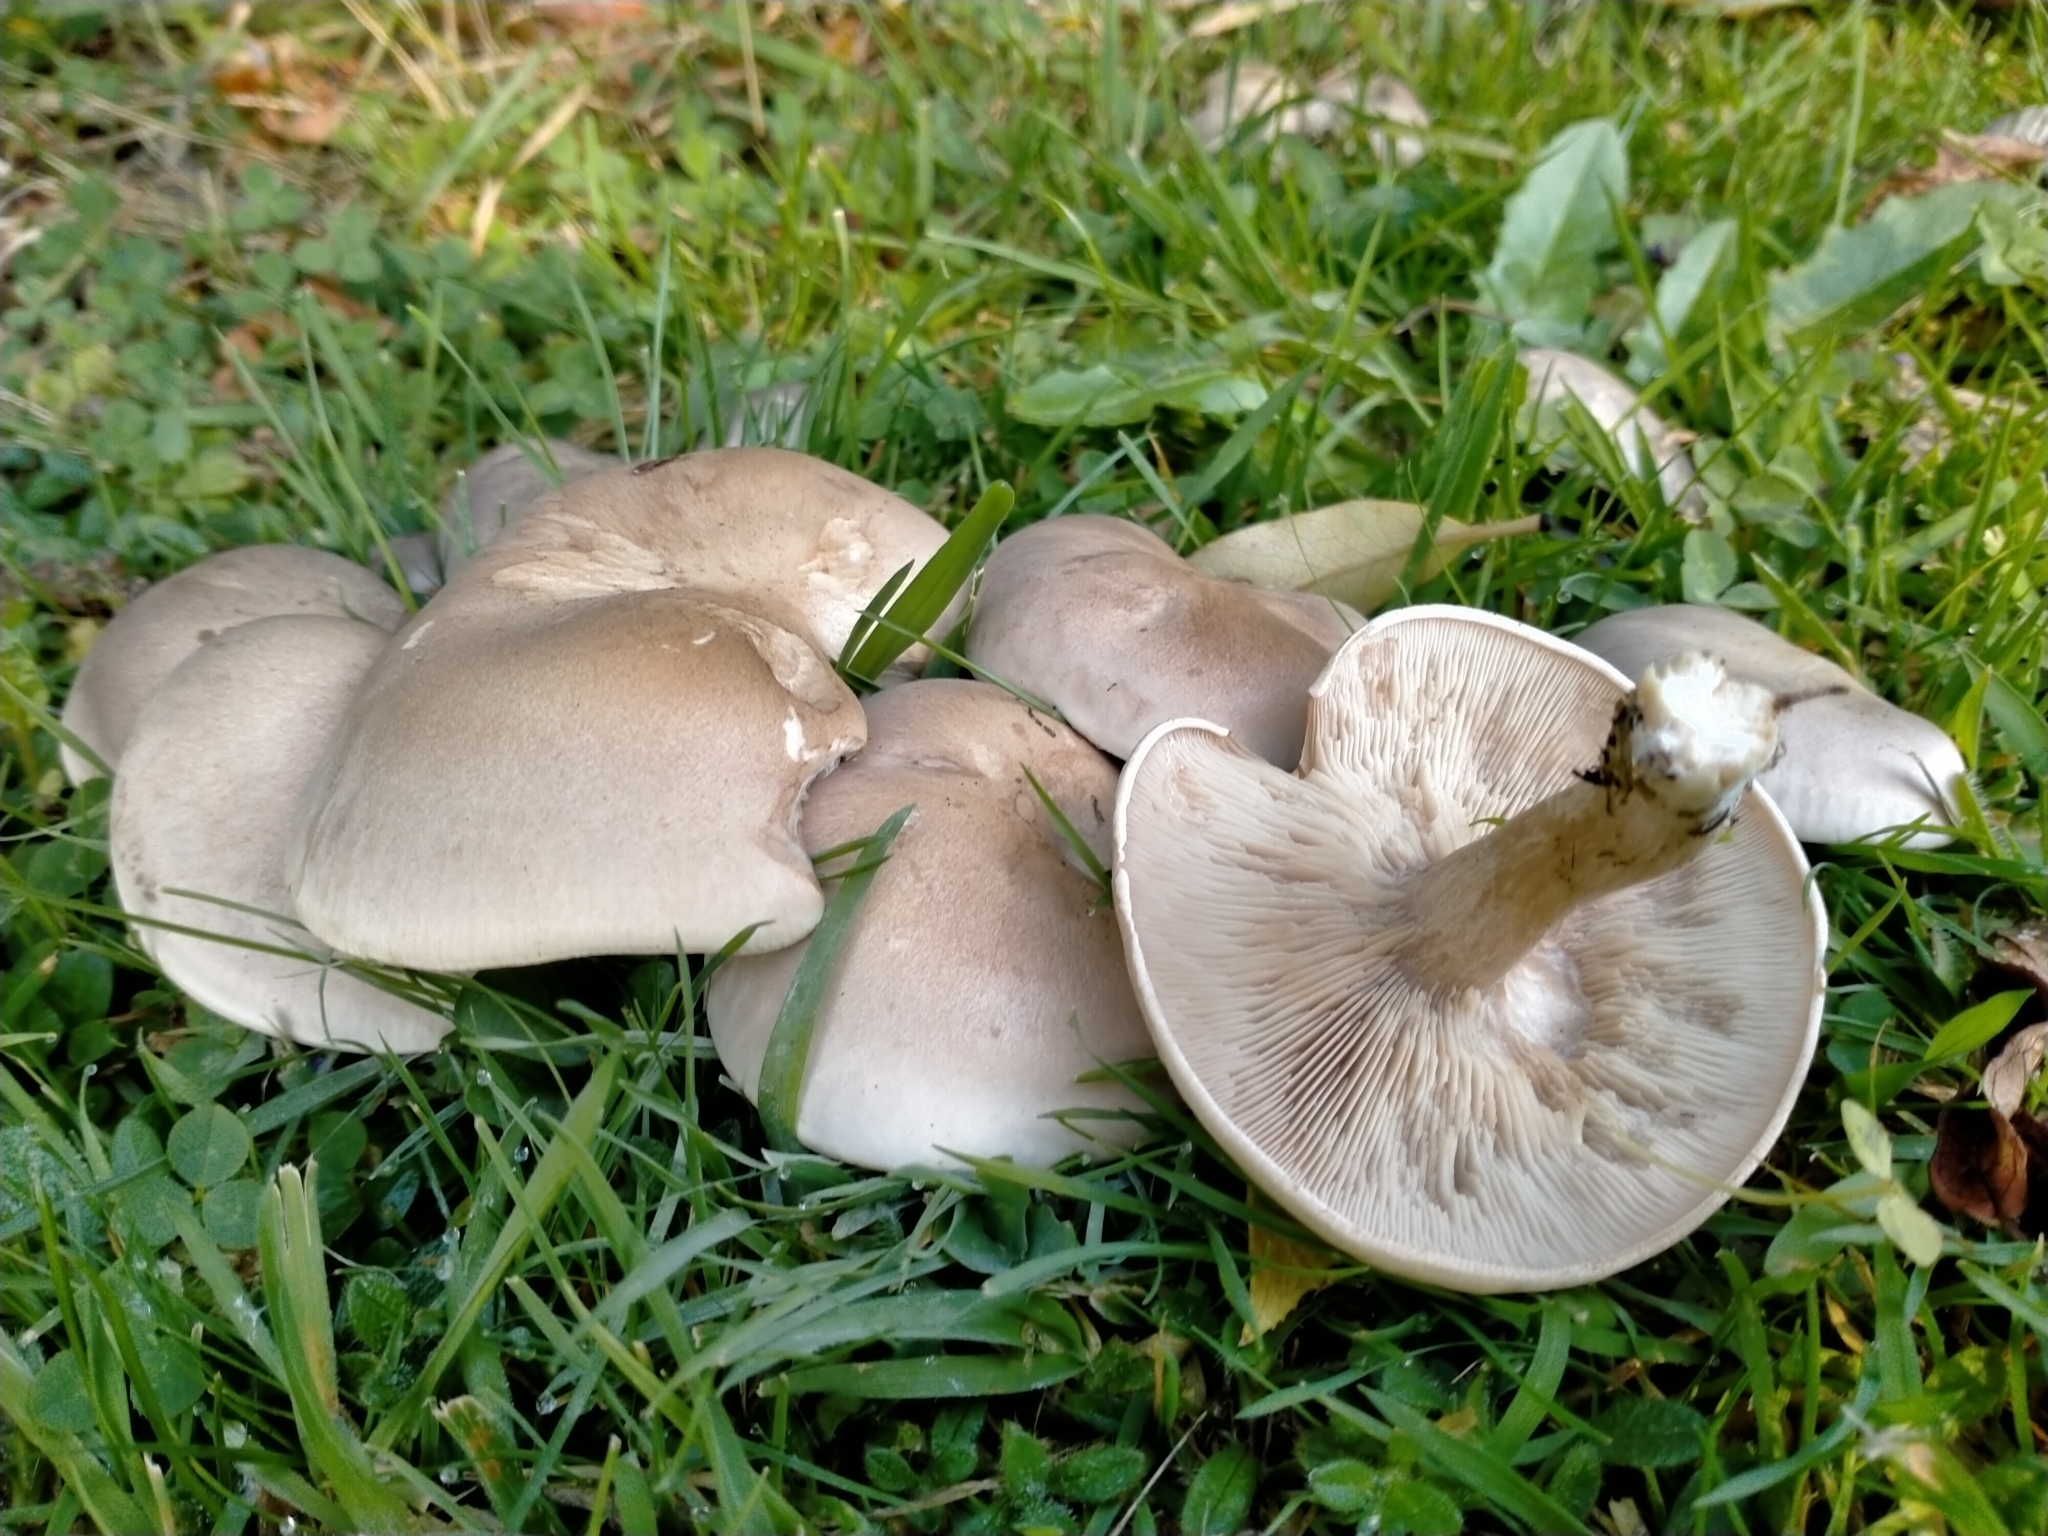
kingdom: Fungi
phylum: Basidiomycota
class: Agaricomycetes
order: Agaricales
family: Tricholomataceae
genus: Lepista
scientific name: Lepista luscina
